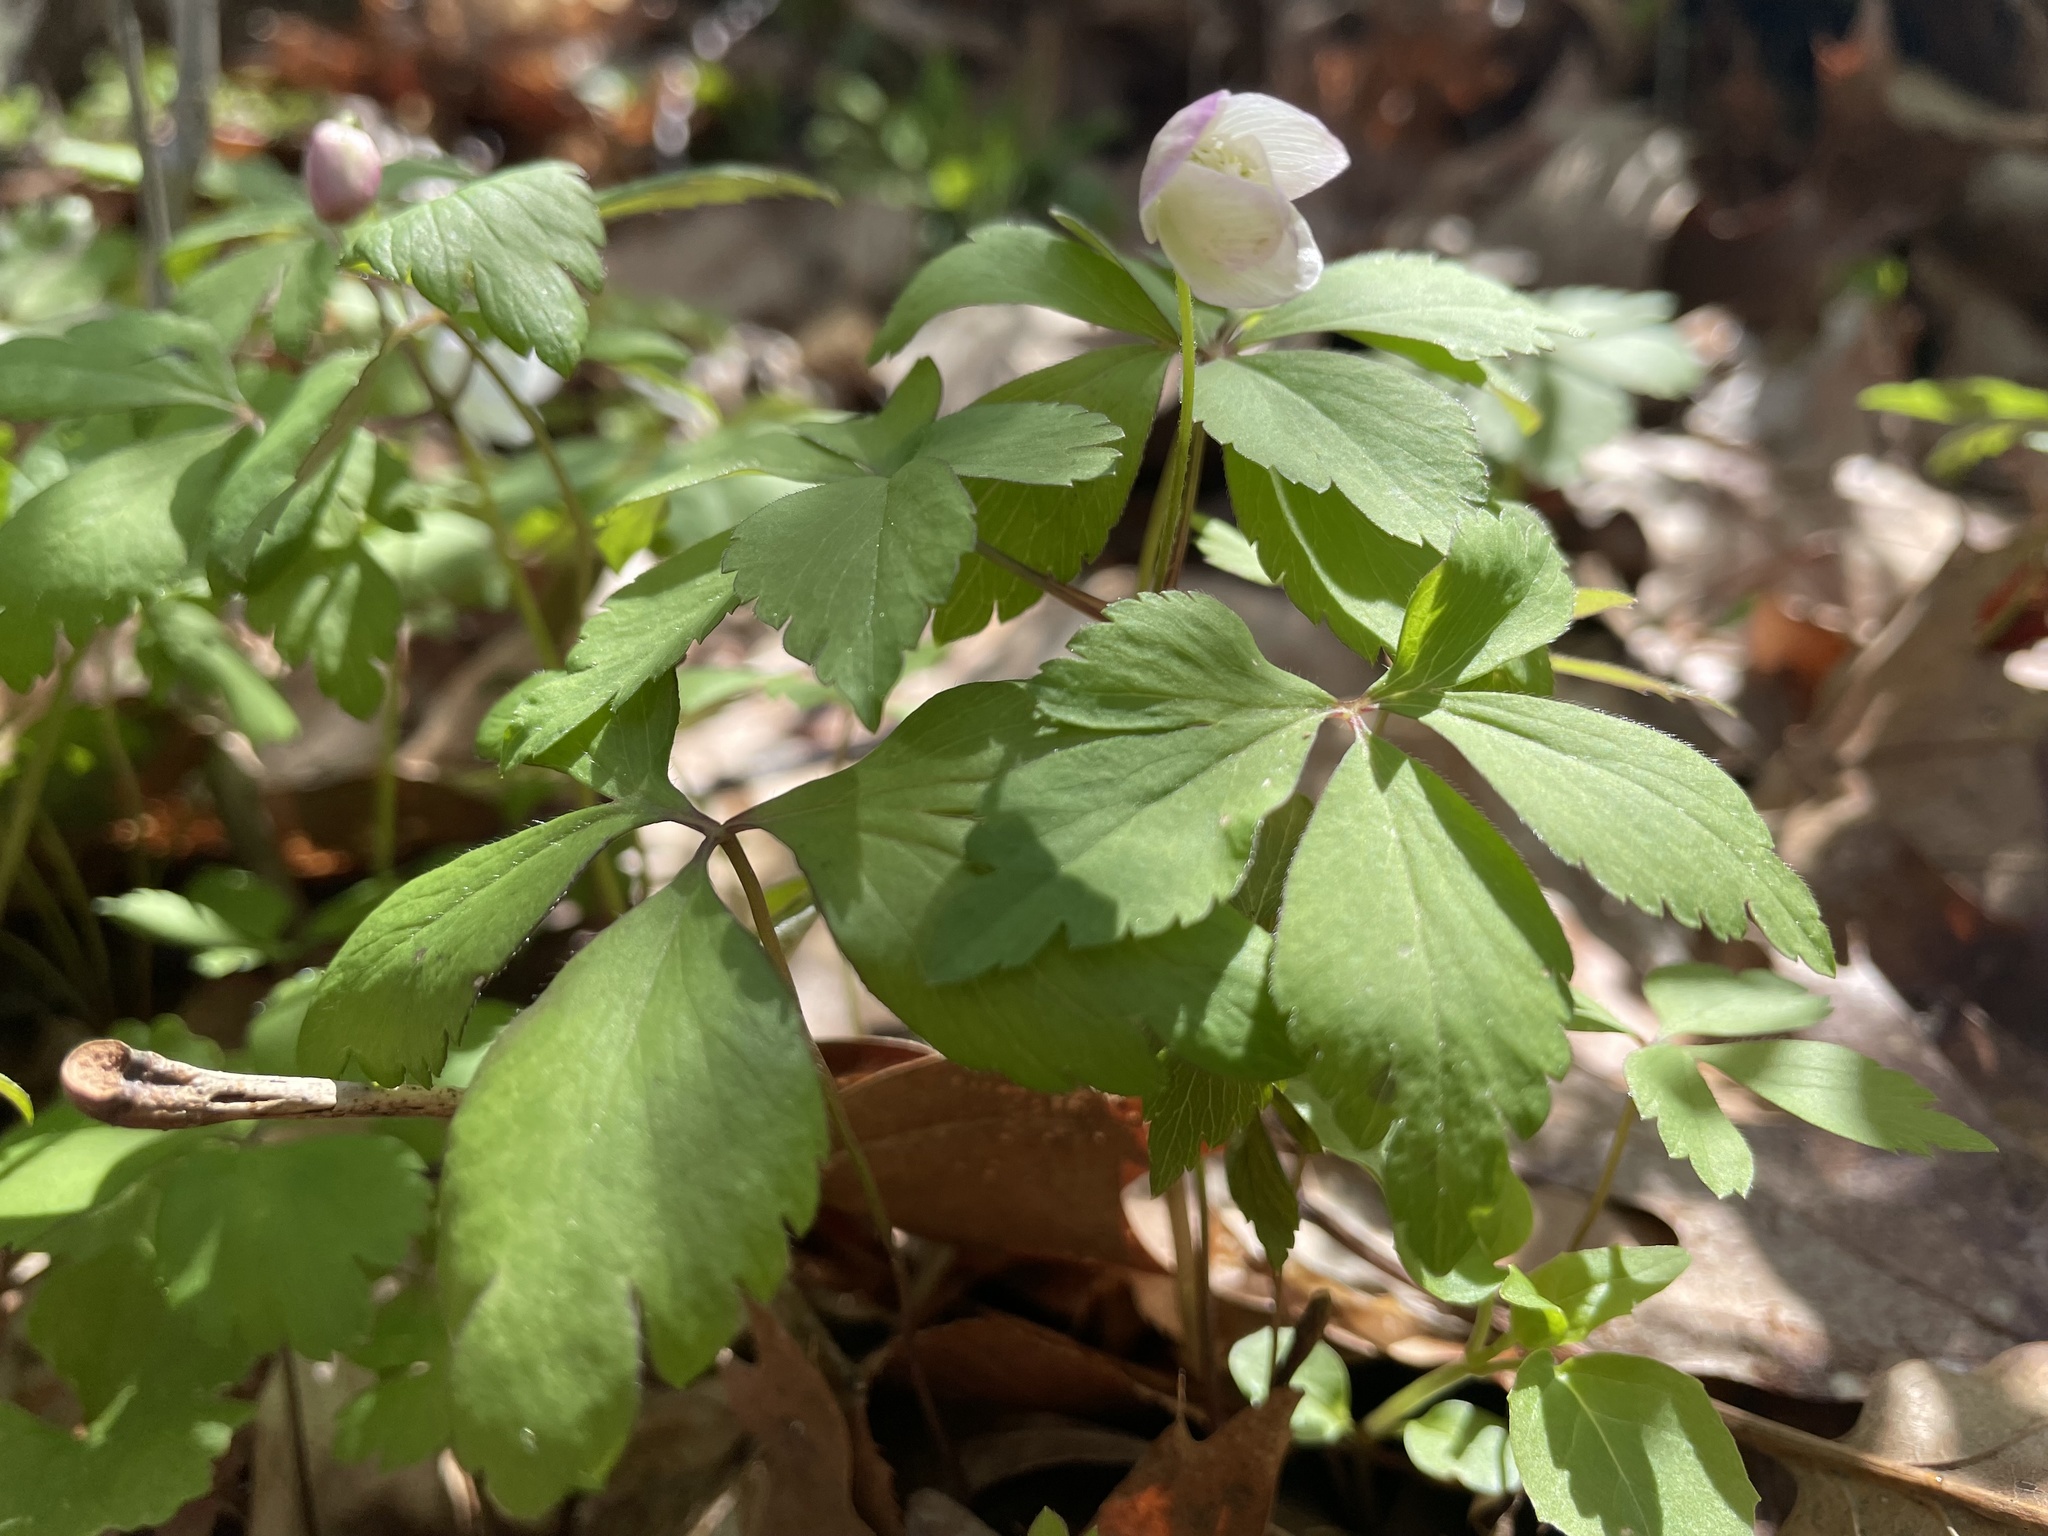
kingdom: Plantae
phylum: Tracheophyta
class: Magnoliopsida
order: Ranunculales
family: Ranunculaceae
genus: Anemone
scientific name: Anemone quinquefolia
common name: Wood anemone
